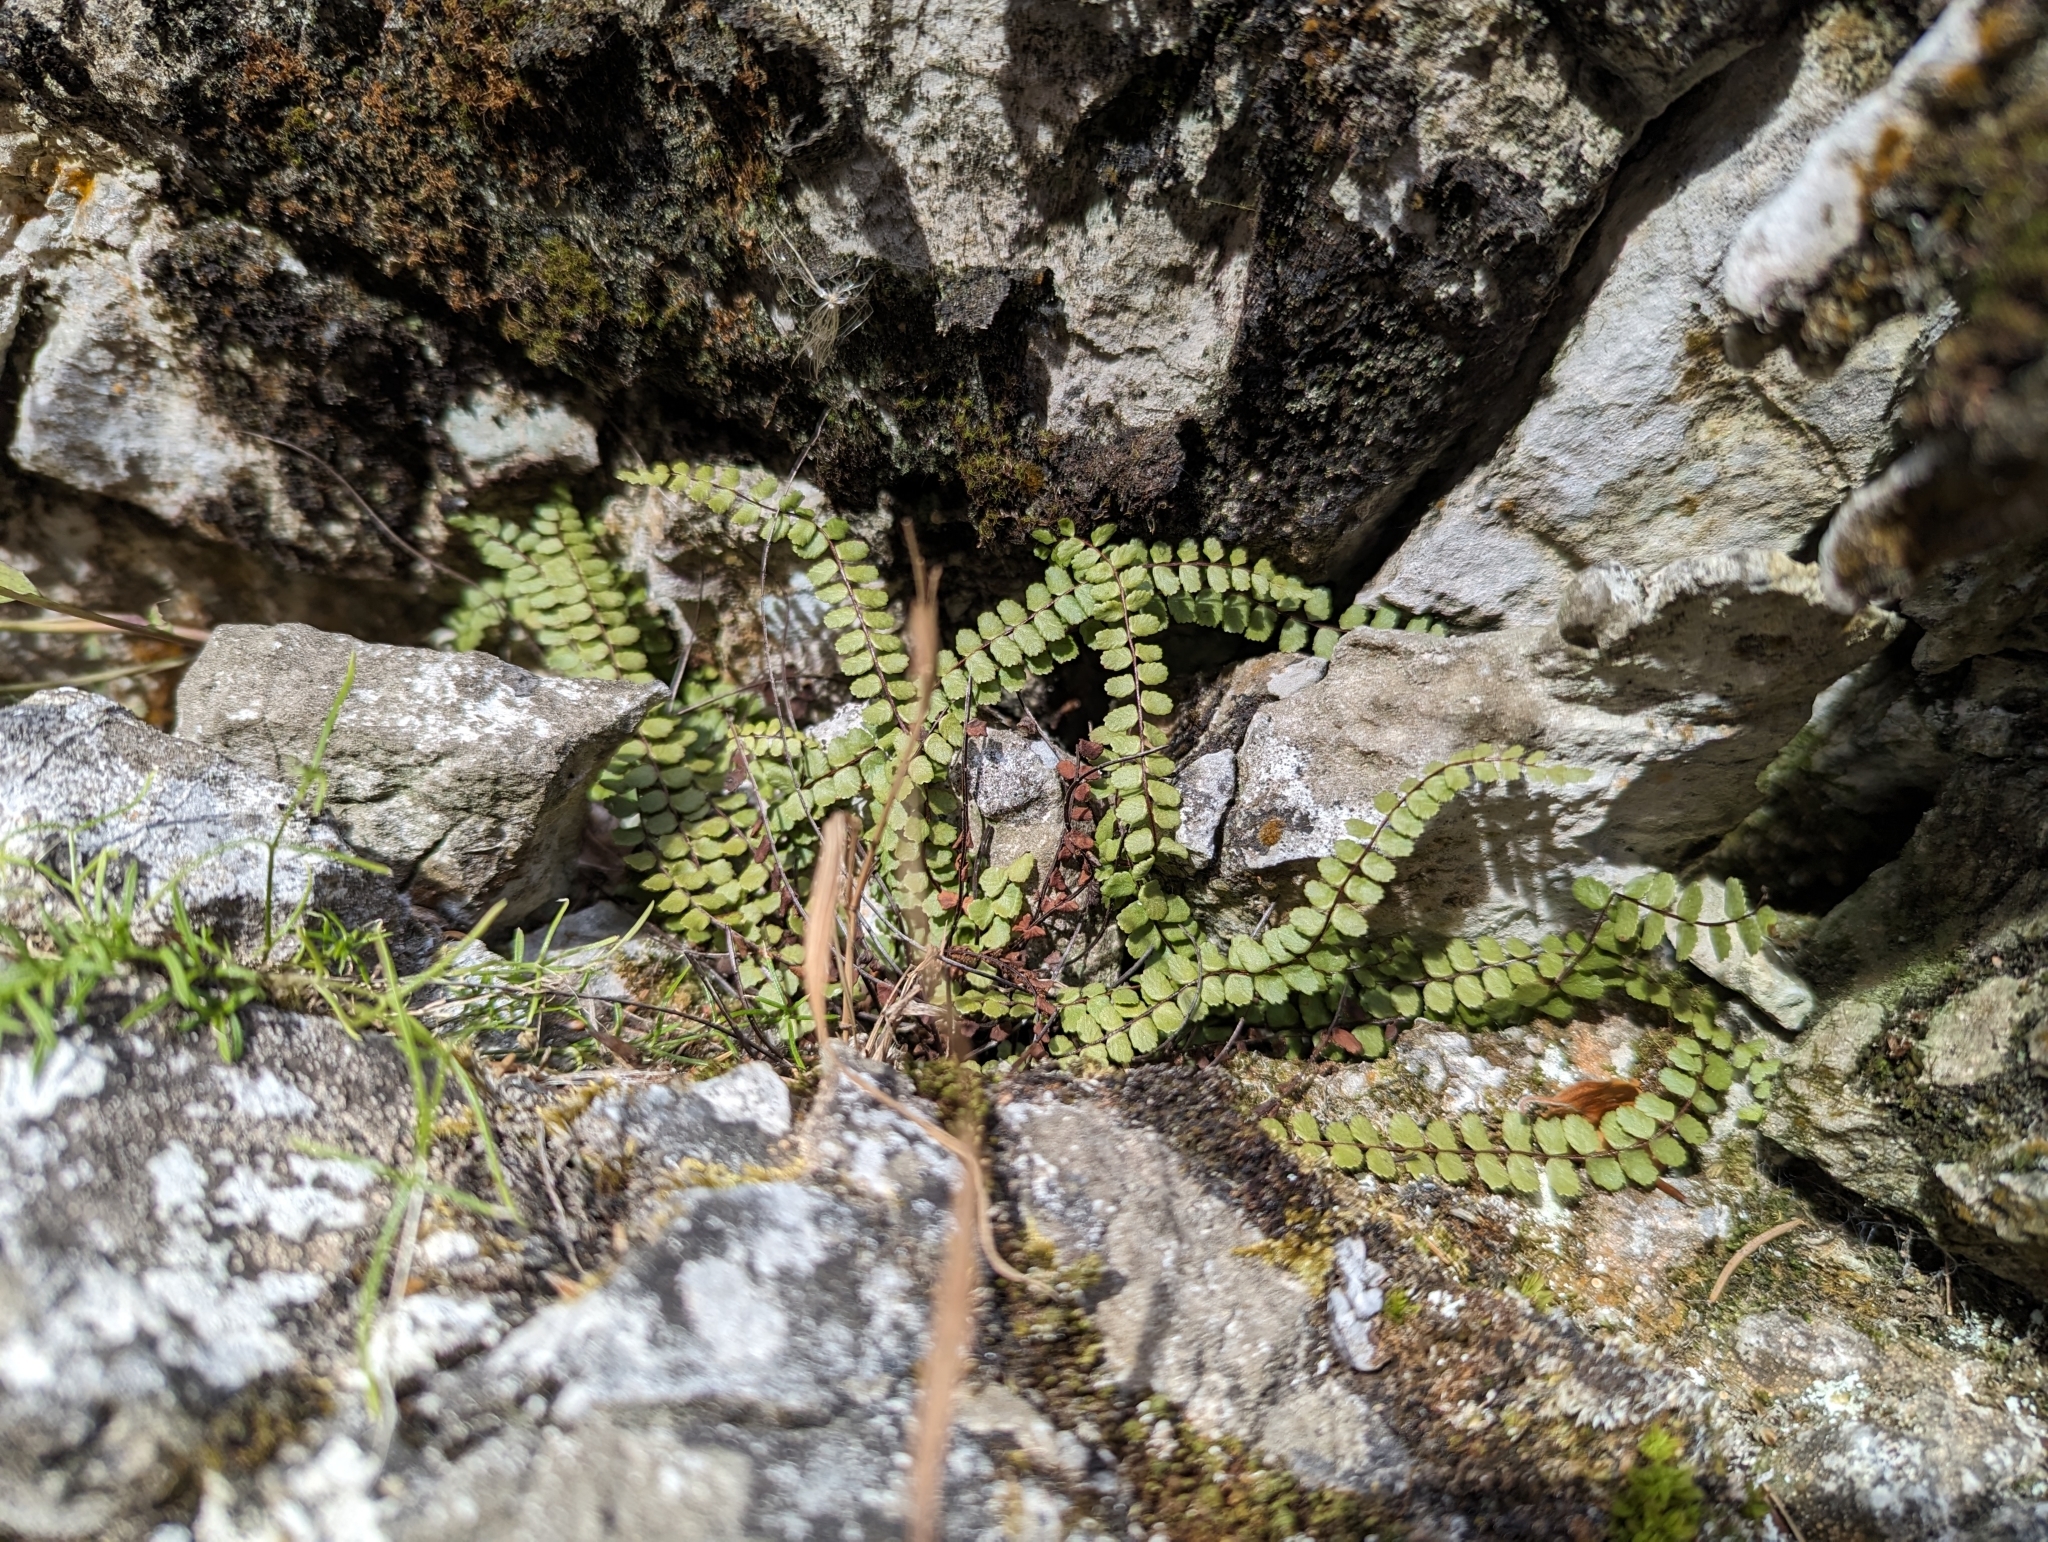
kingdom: Plantae
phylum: Tracheophyta
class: Polypodiopsida
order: Polypodiales
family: Aspleniaceae
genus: Asplenium
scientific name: Asplenium trichomanes
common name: Maidenhair spleenwort
